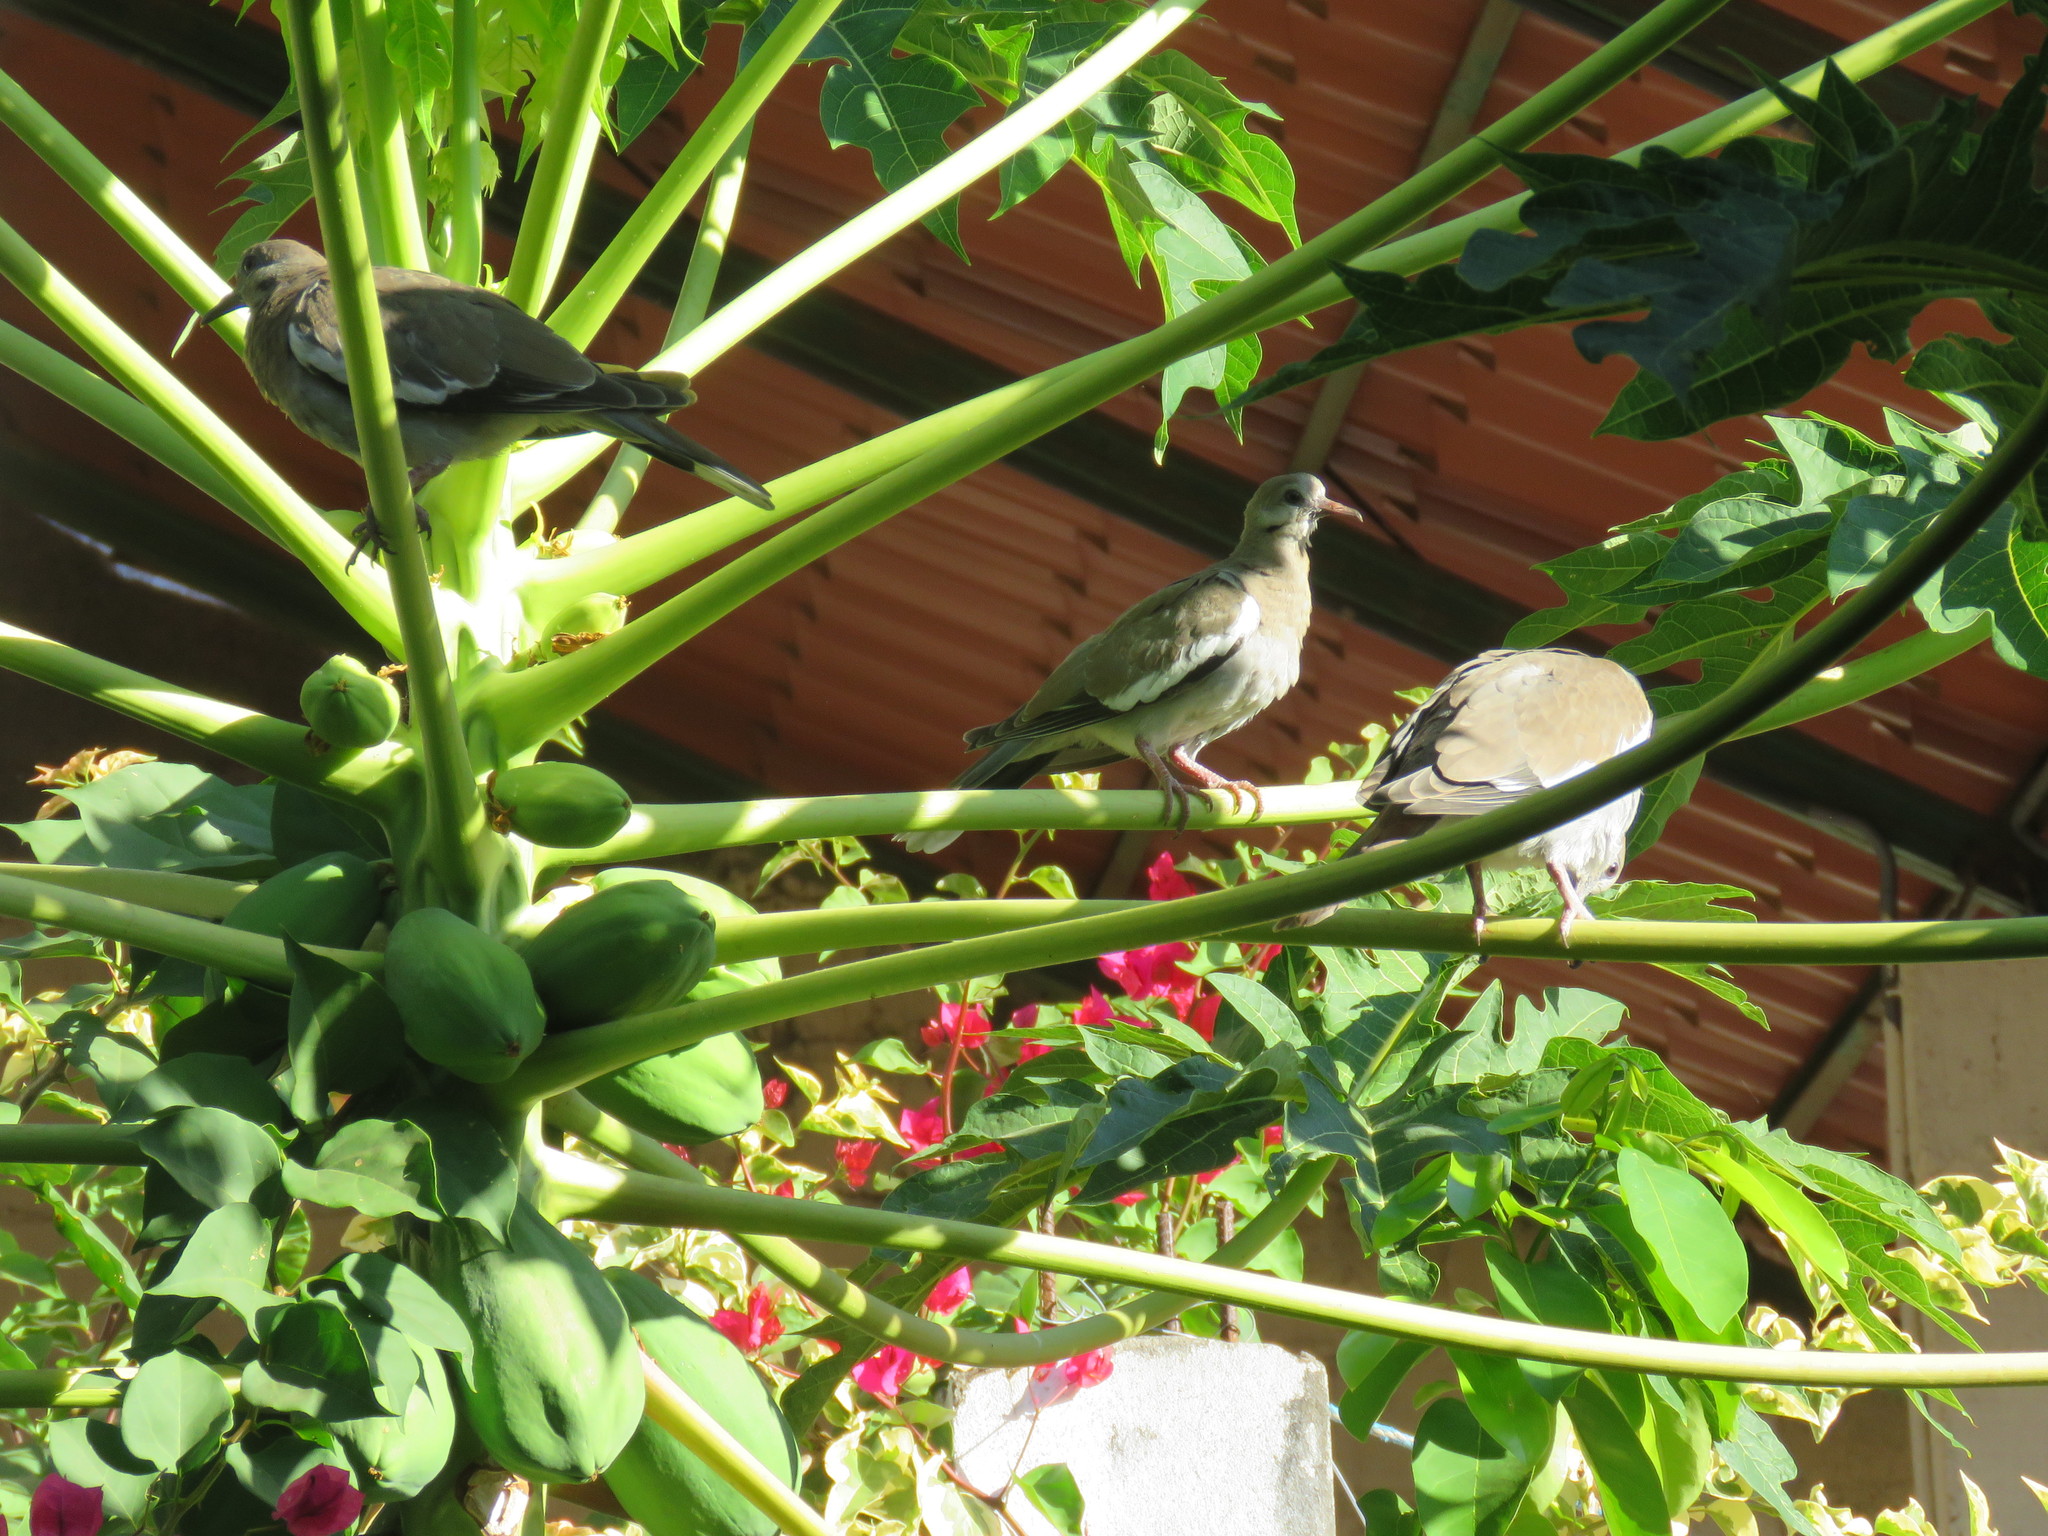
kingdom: Animalia
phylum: Chordata
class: Aves
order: Columbiformes
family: Columbidae
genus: Zenaida
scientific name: Zenaida asiatica
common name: White-winged dove
